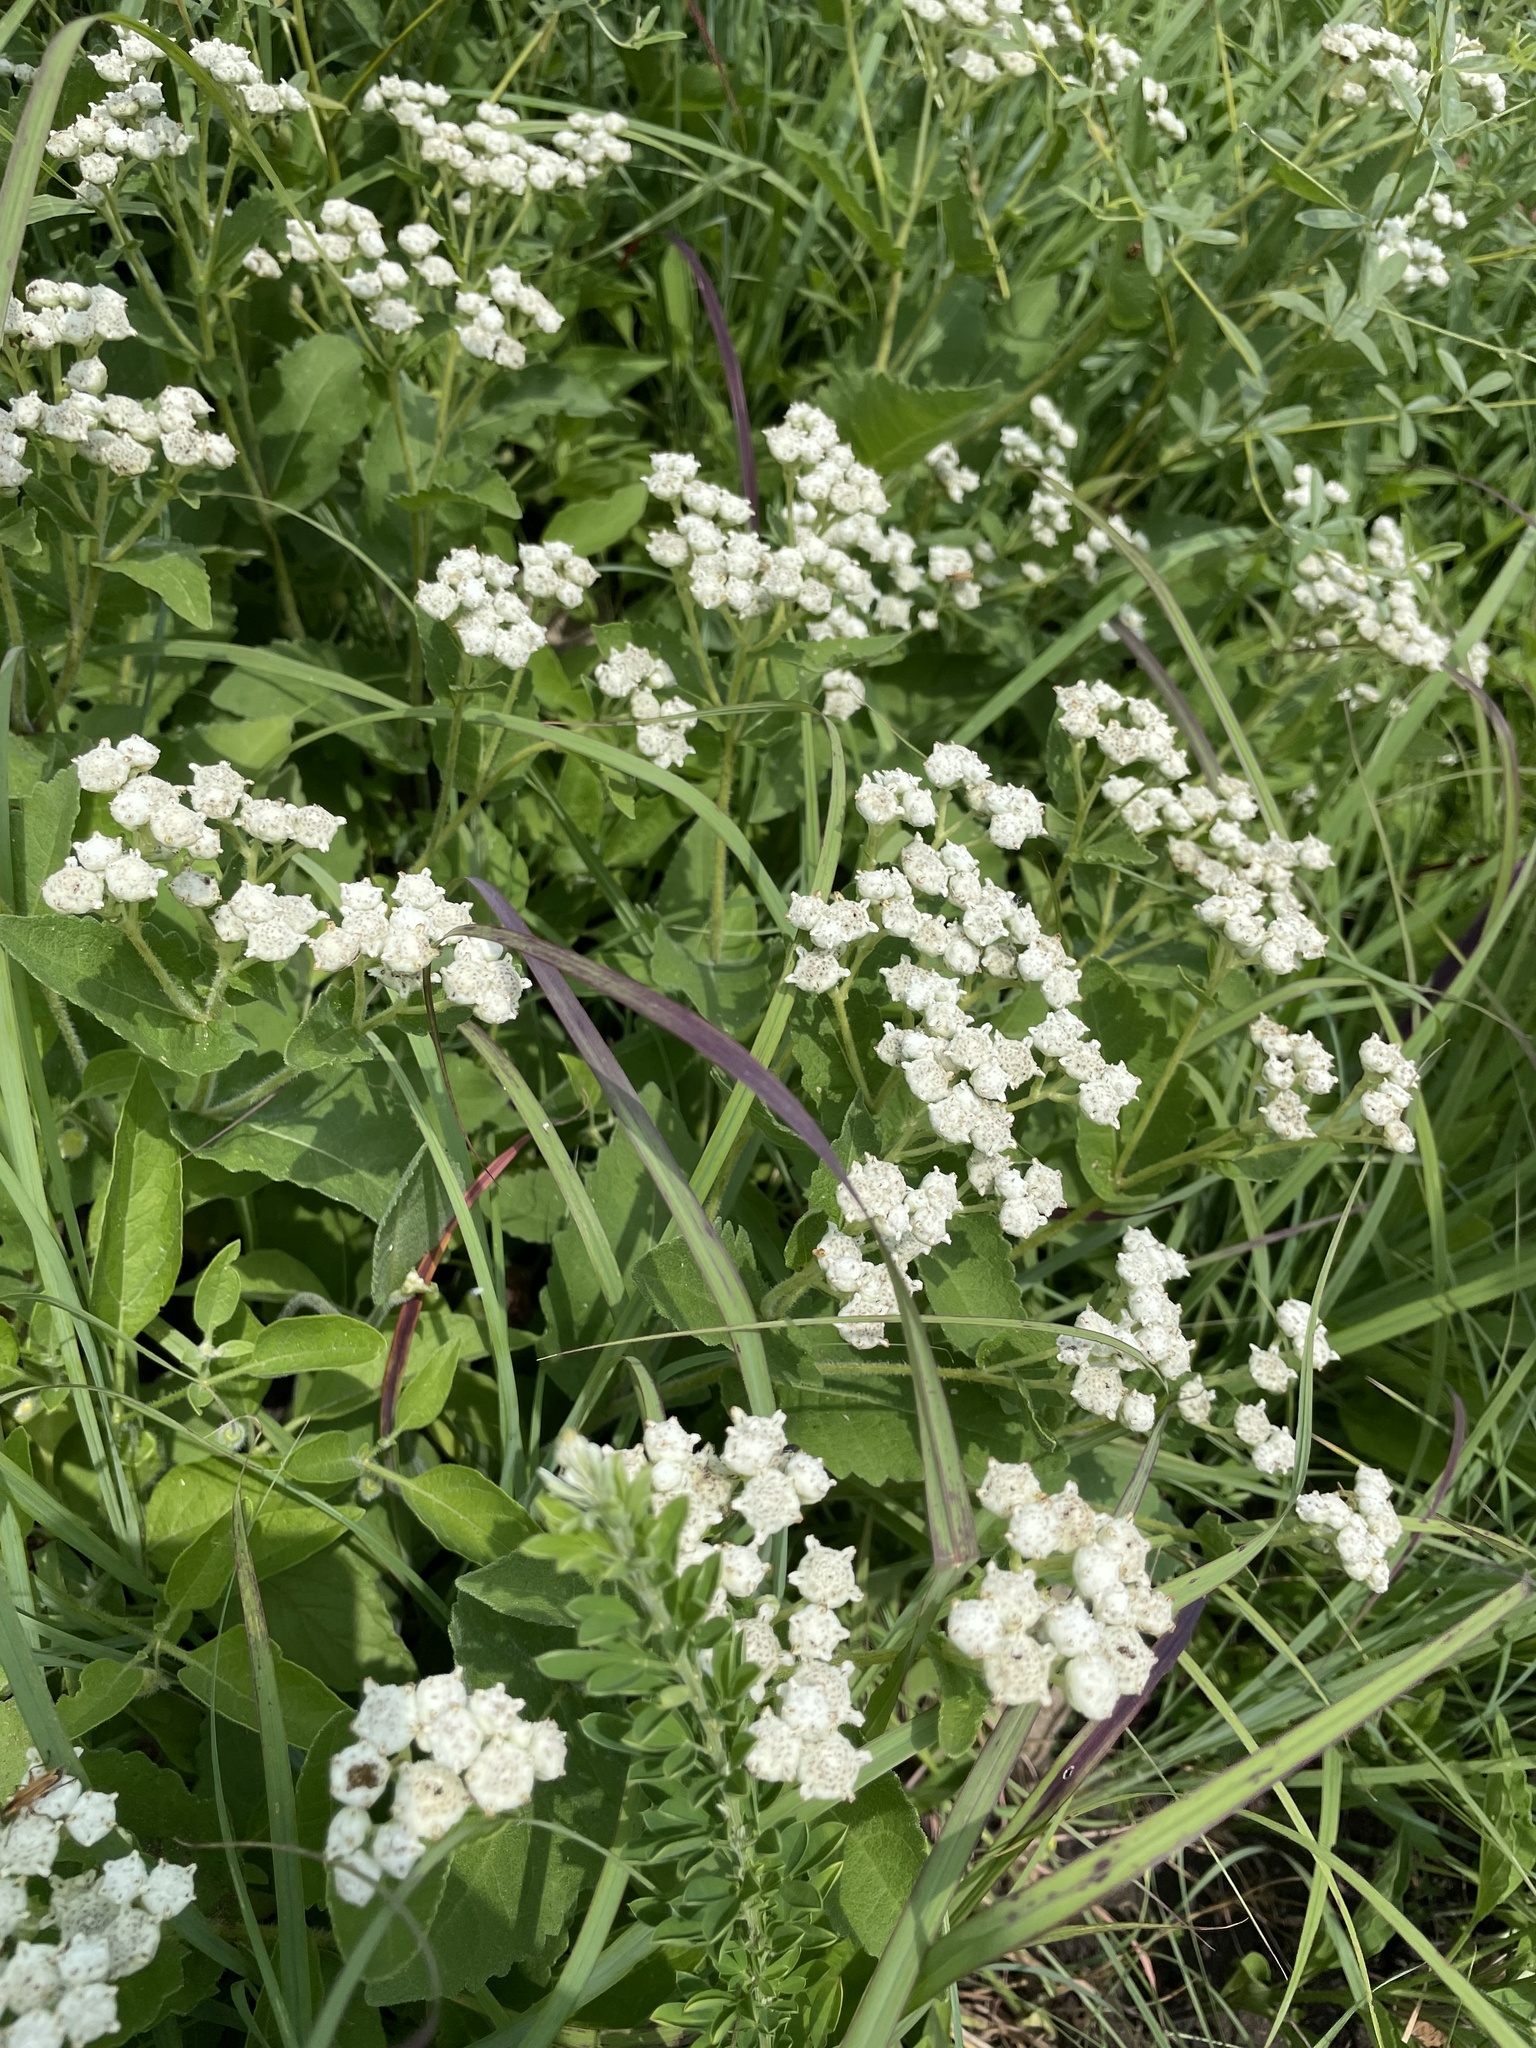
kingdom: Plantae
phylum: Tracheophyta
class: Magnoliopsida
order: Asterales
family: Asteraceae
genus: Parthenium
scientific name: Parthenium integrifolium
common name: American feverfew
